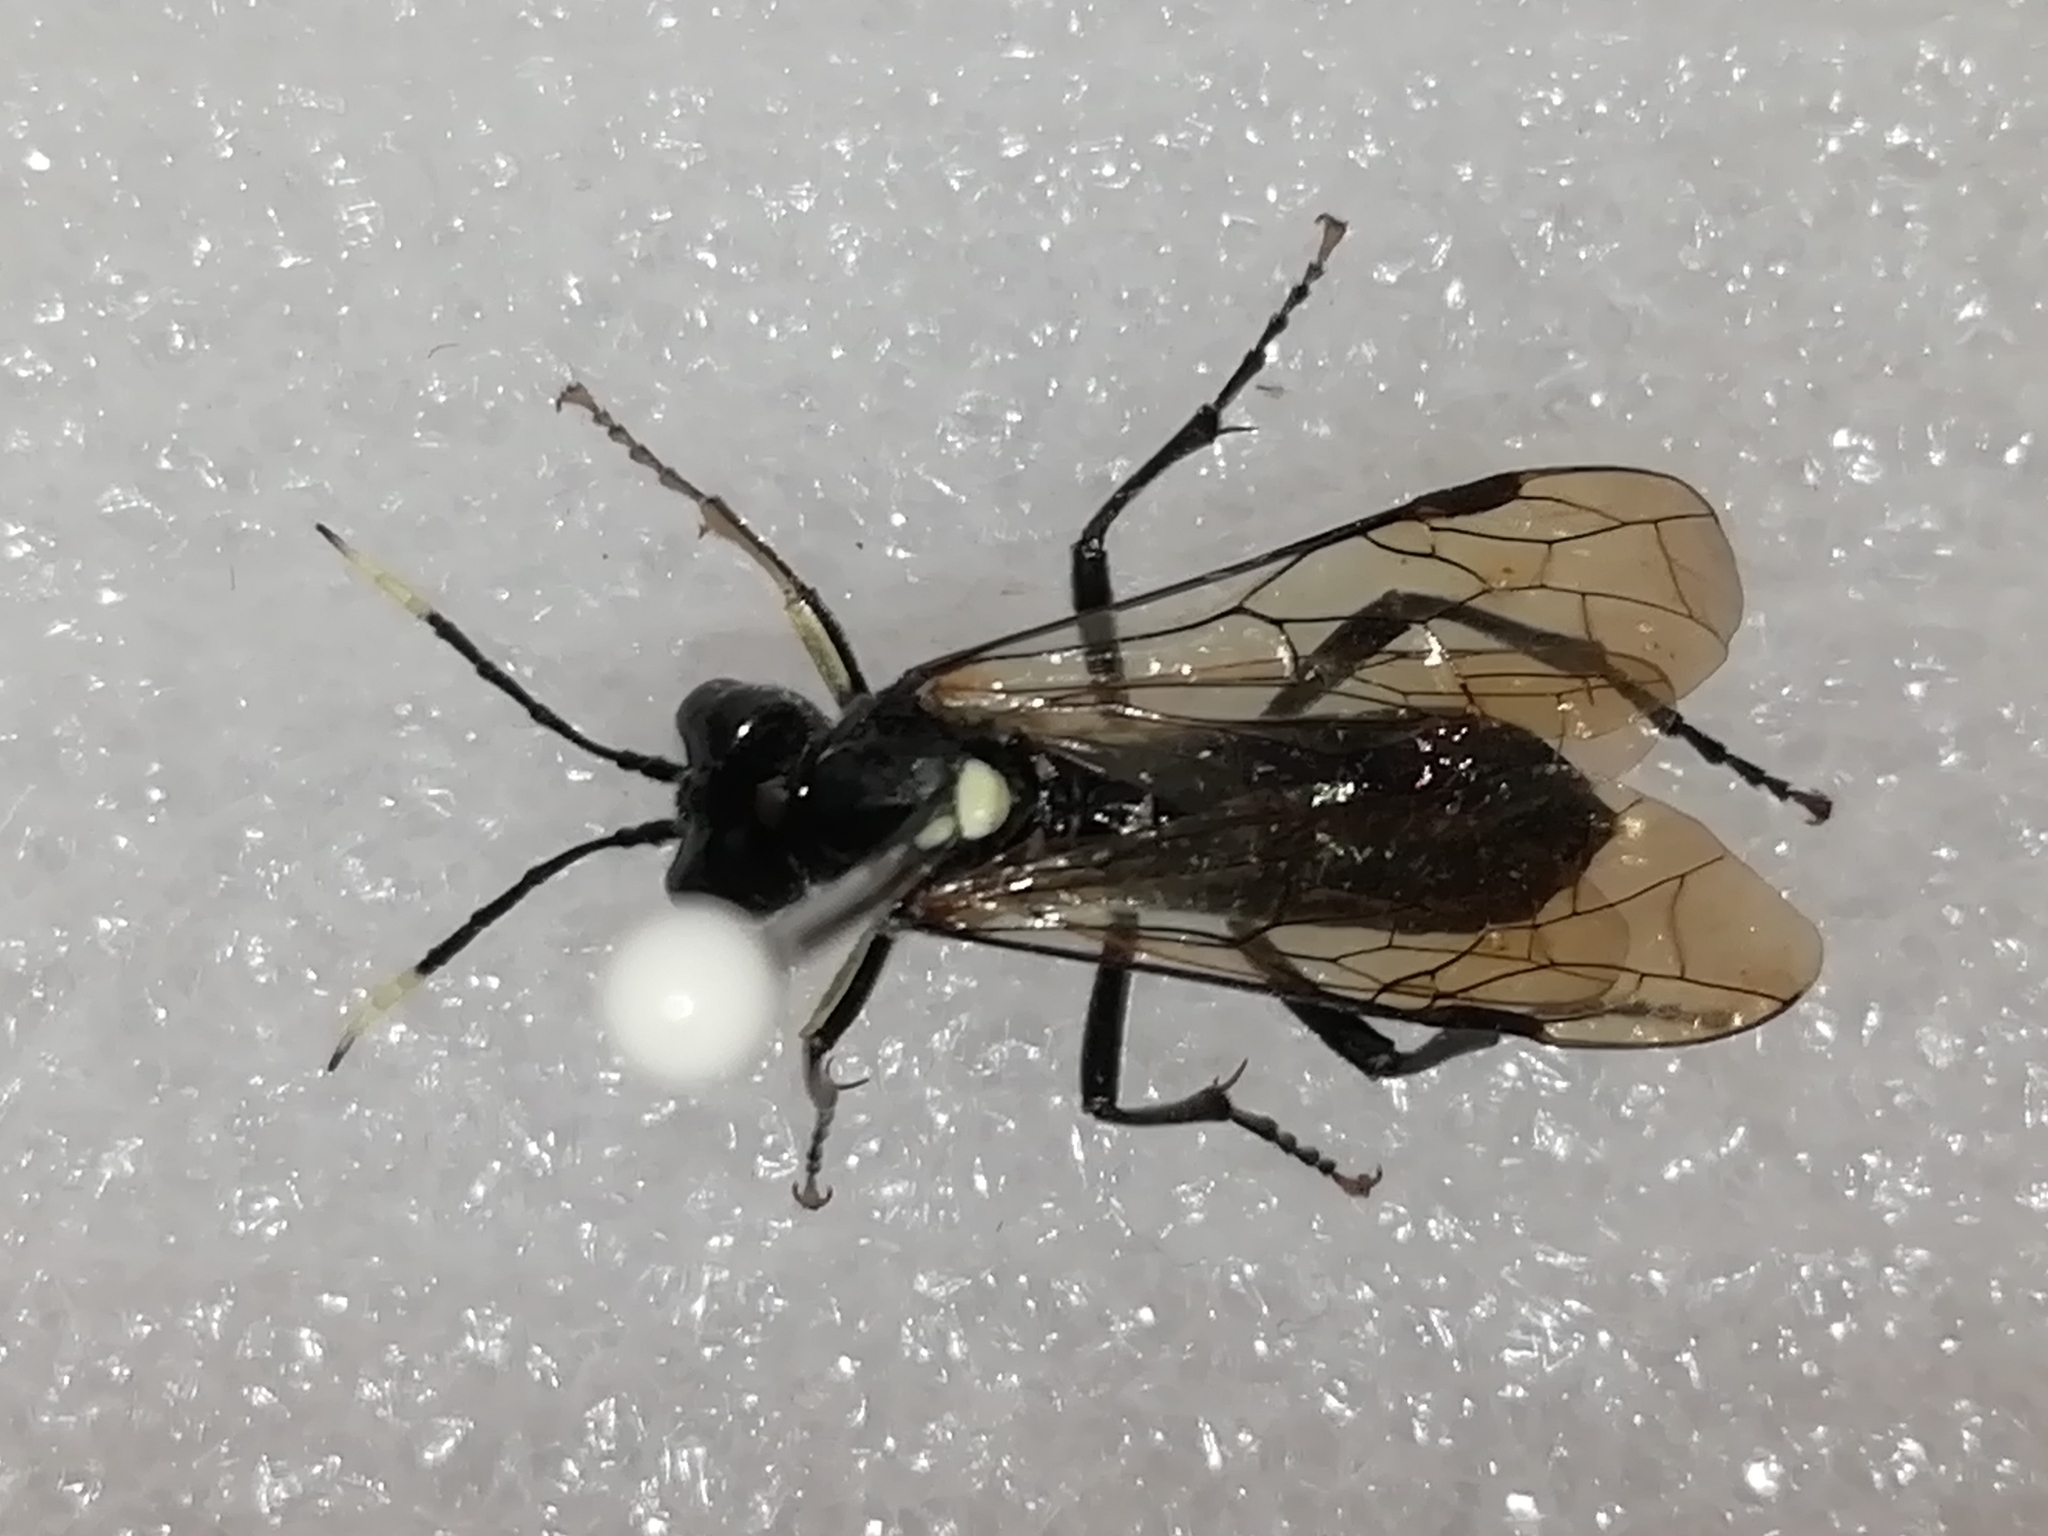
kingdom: Animalia
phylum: Arthropoda
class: Insecta
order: Hymenoptera
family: Tenthredinidae
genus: Tenthredo
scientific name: Tenthredo fagi
